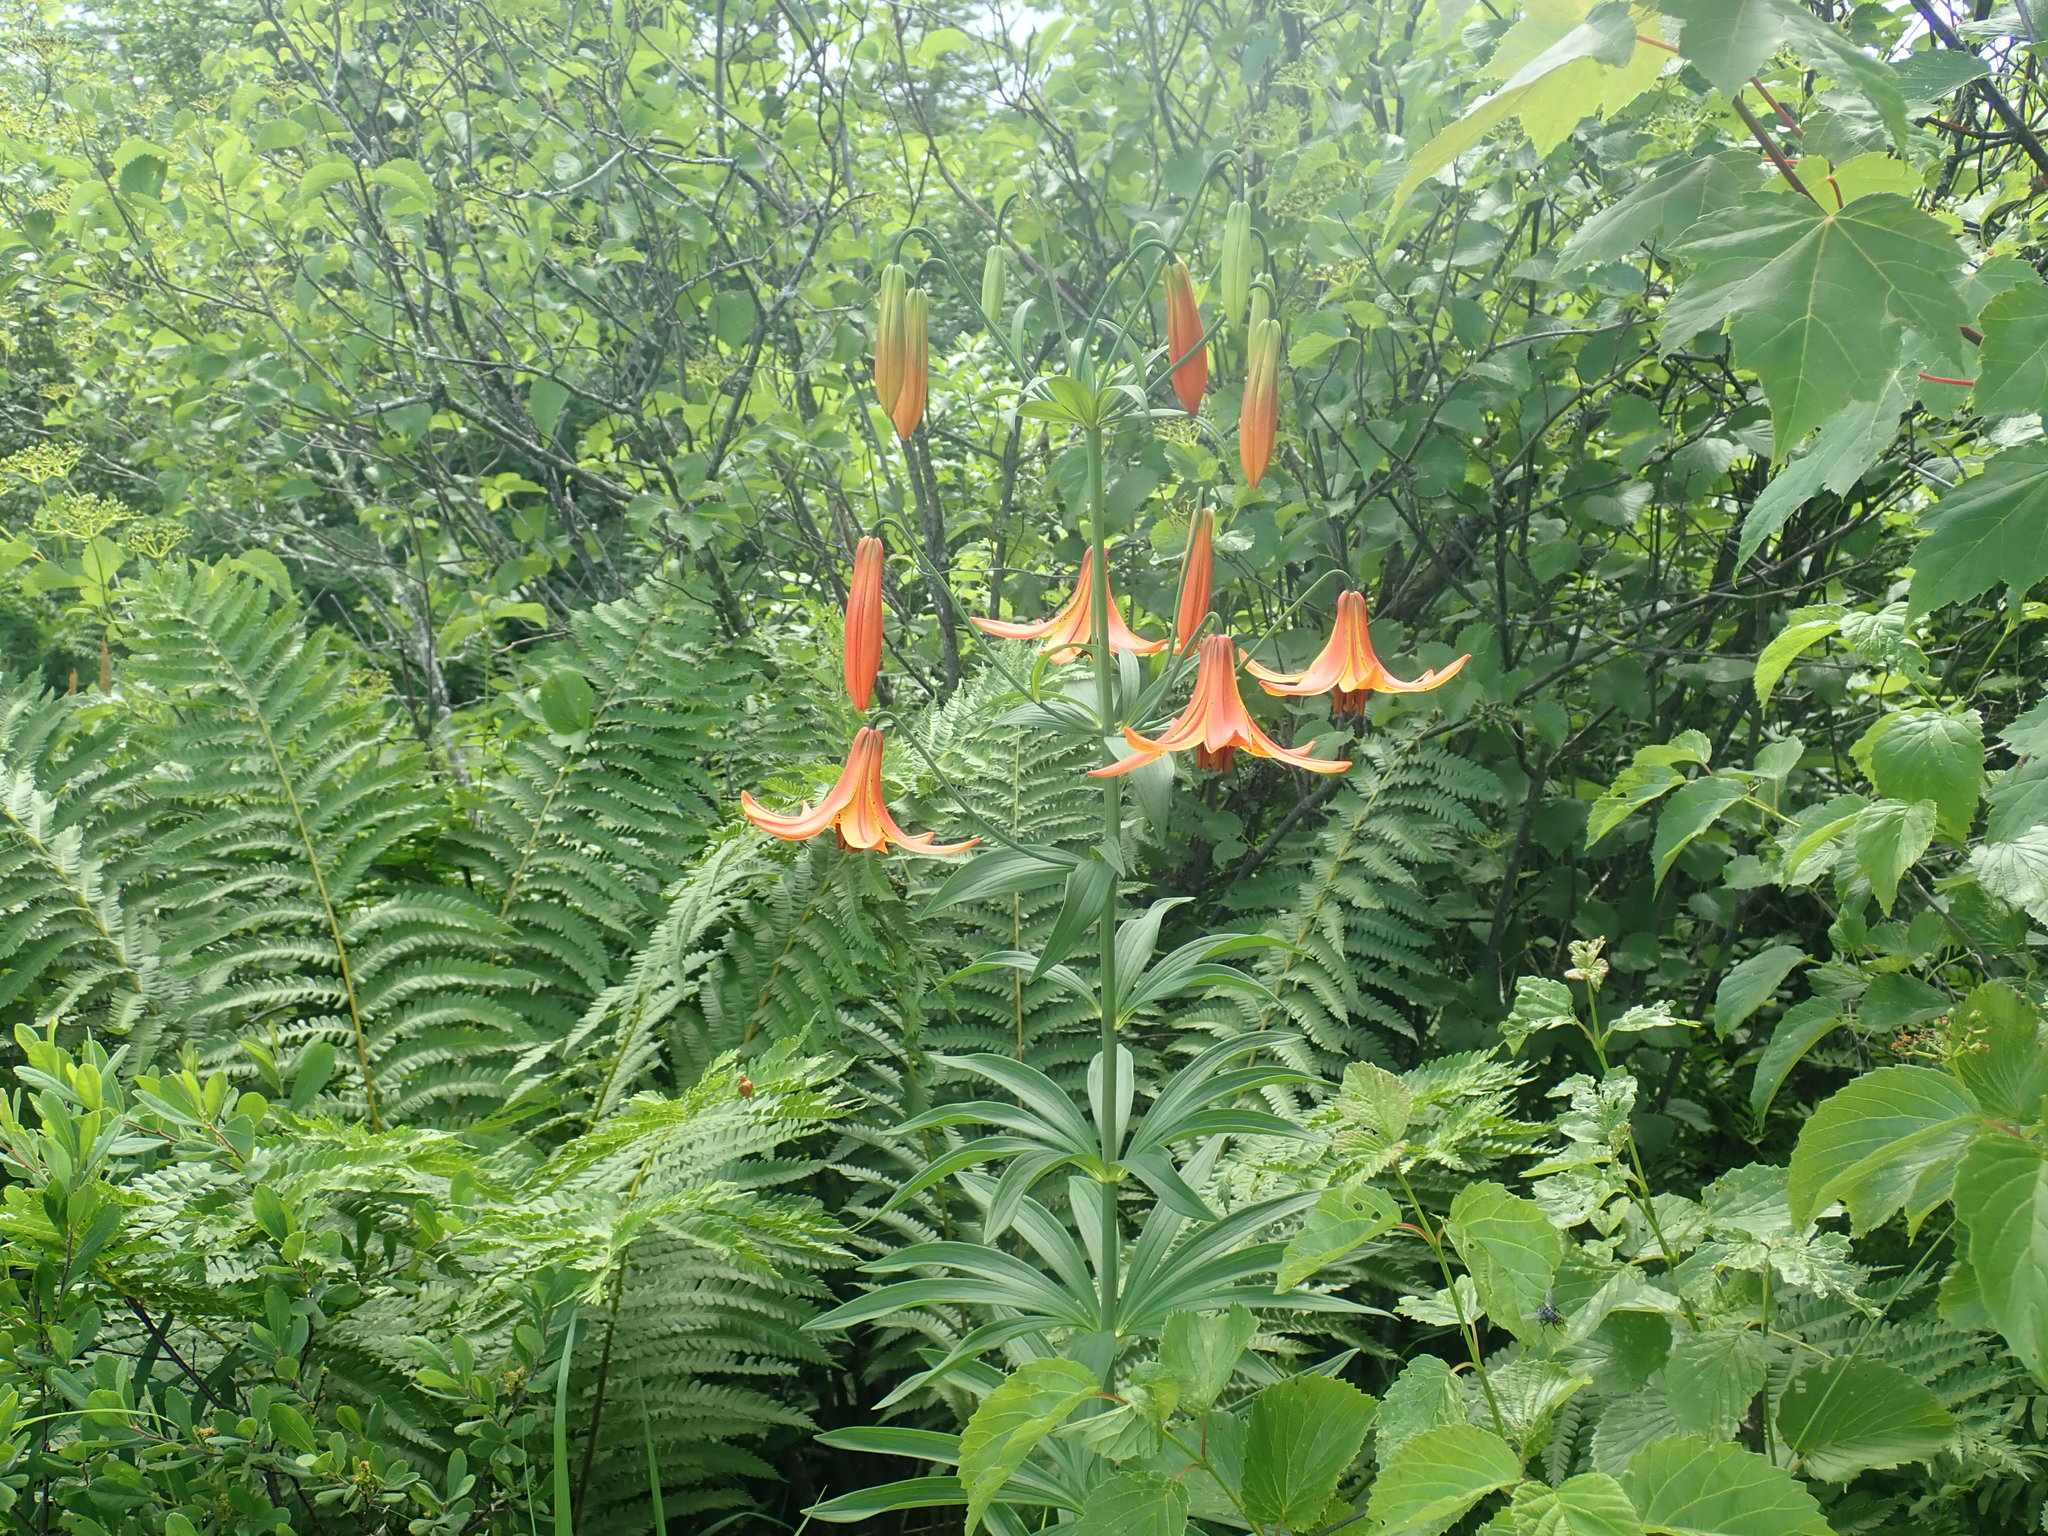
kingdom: Plantae
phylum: Tracheophyta
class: Liliopsida
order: Liliales
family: Liliaceae
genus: Lilium
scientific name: Lilium canadense
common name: Canada lily
